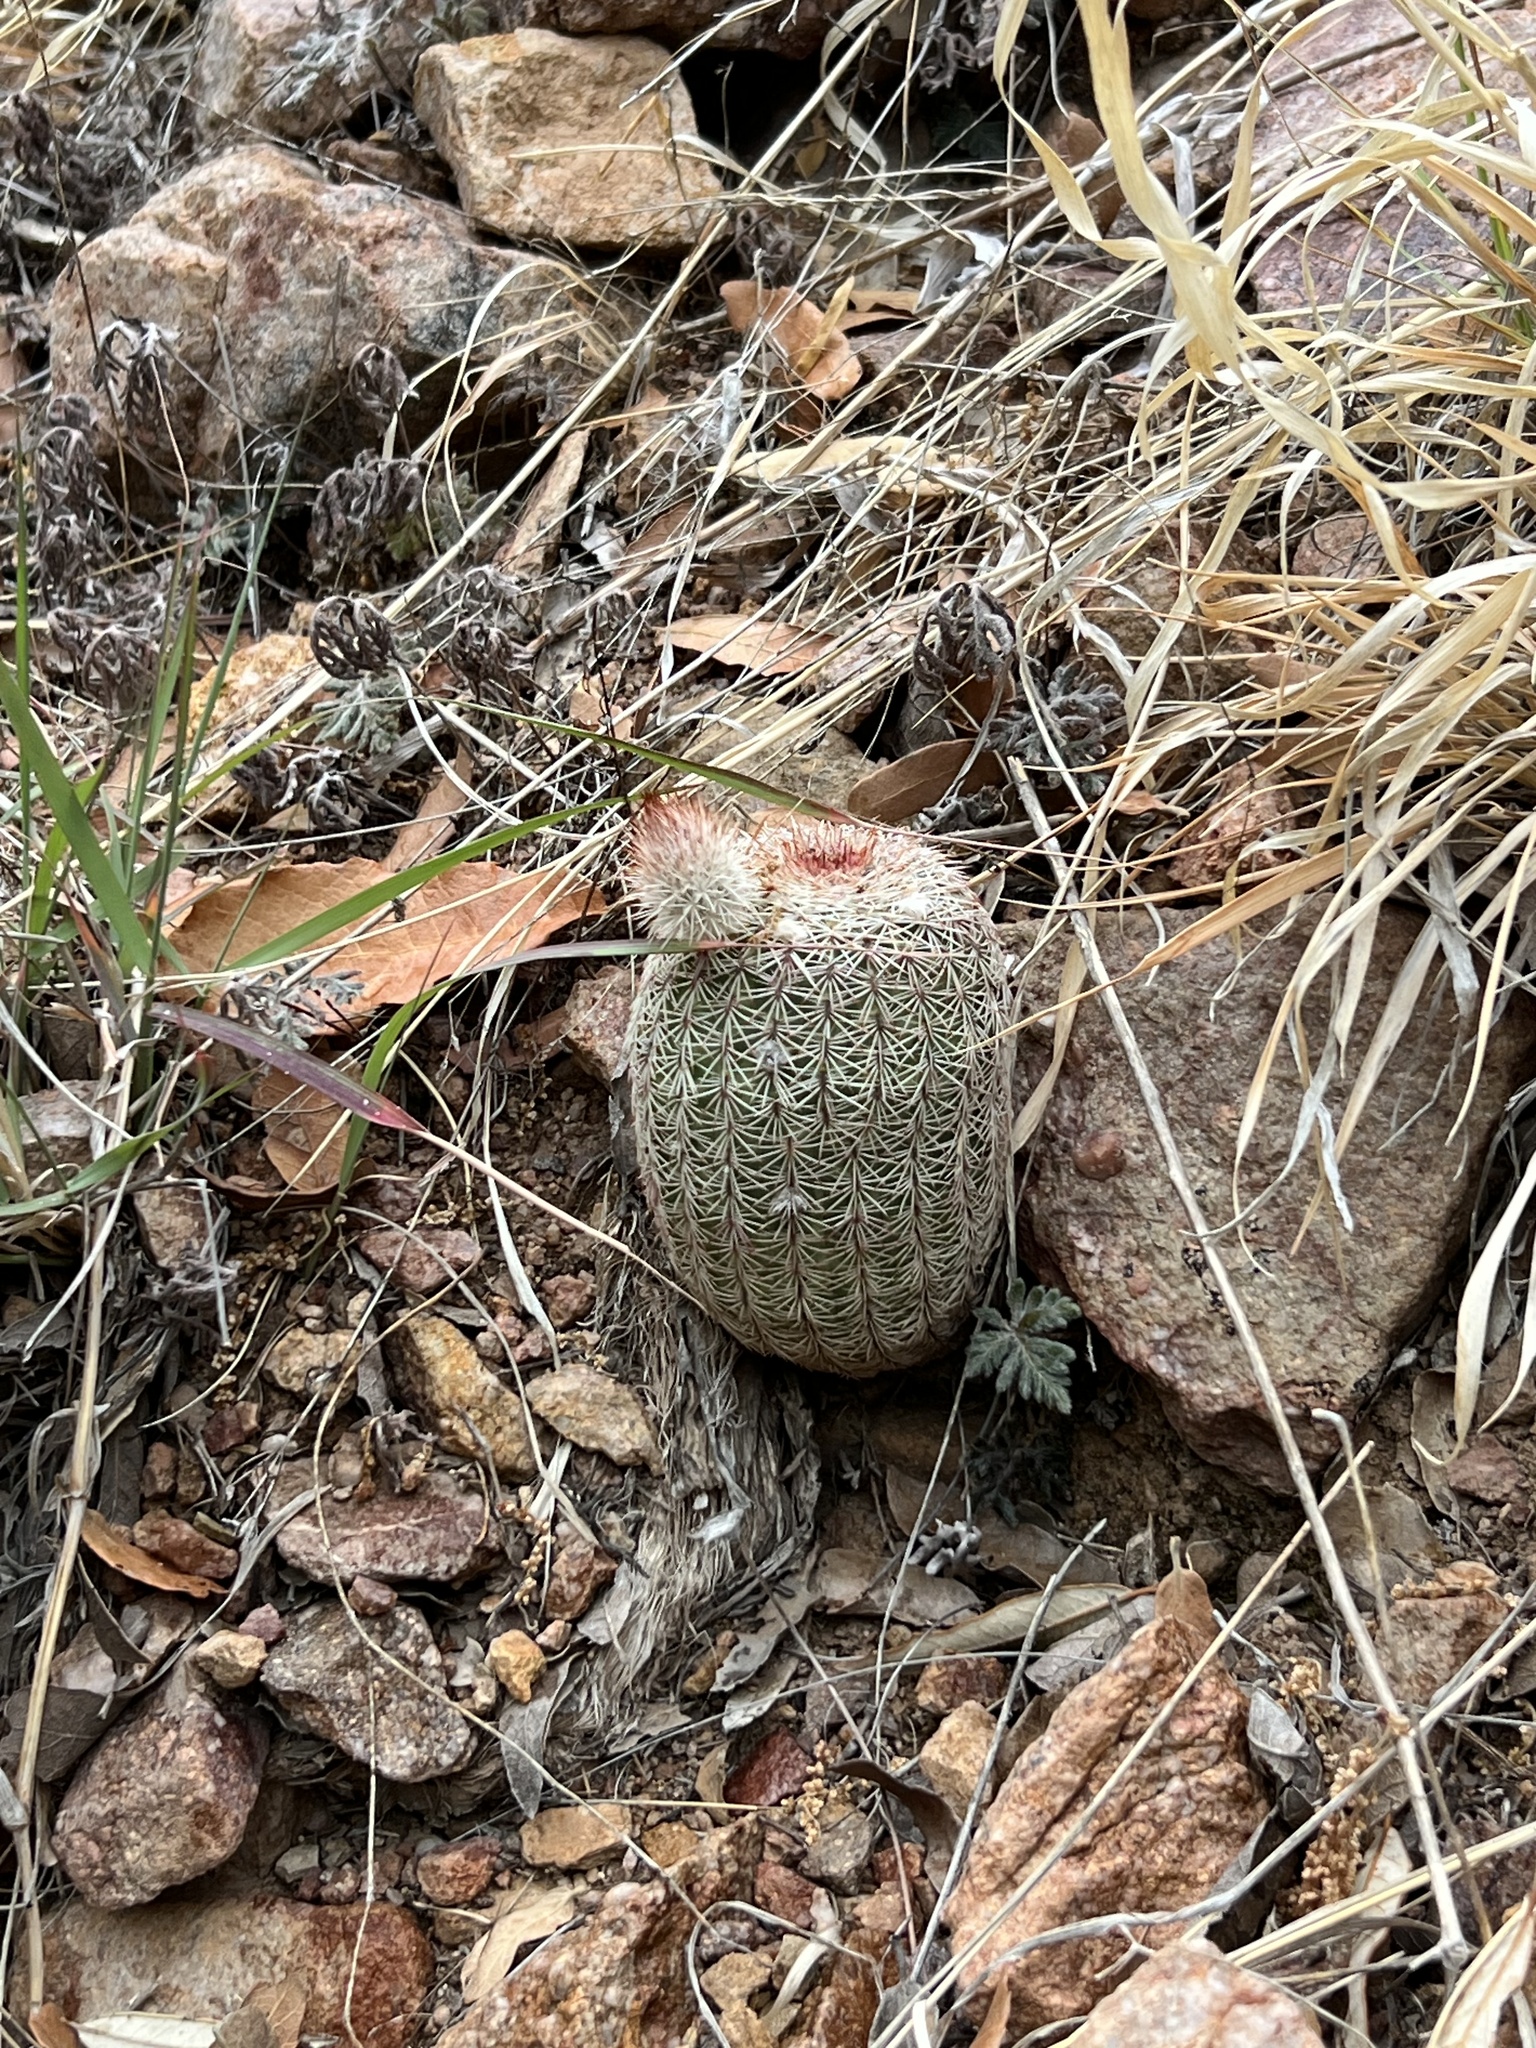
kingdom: Plantae
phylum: Tracheophyta
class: Magnoliopsida
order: Caryophyllales
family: Cactaceae
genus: Echinocereus
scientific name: Echinocereus rigidissimus
